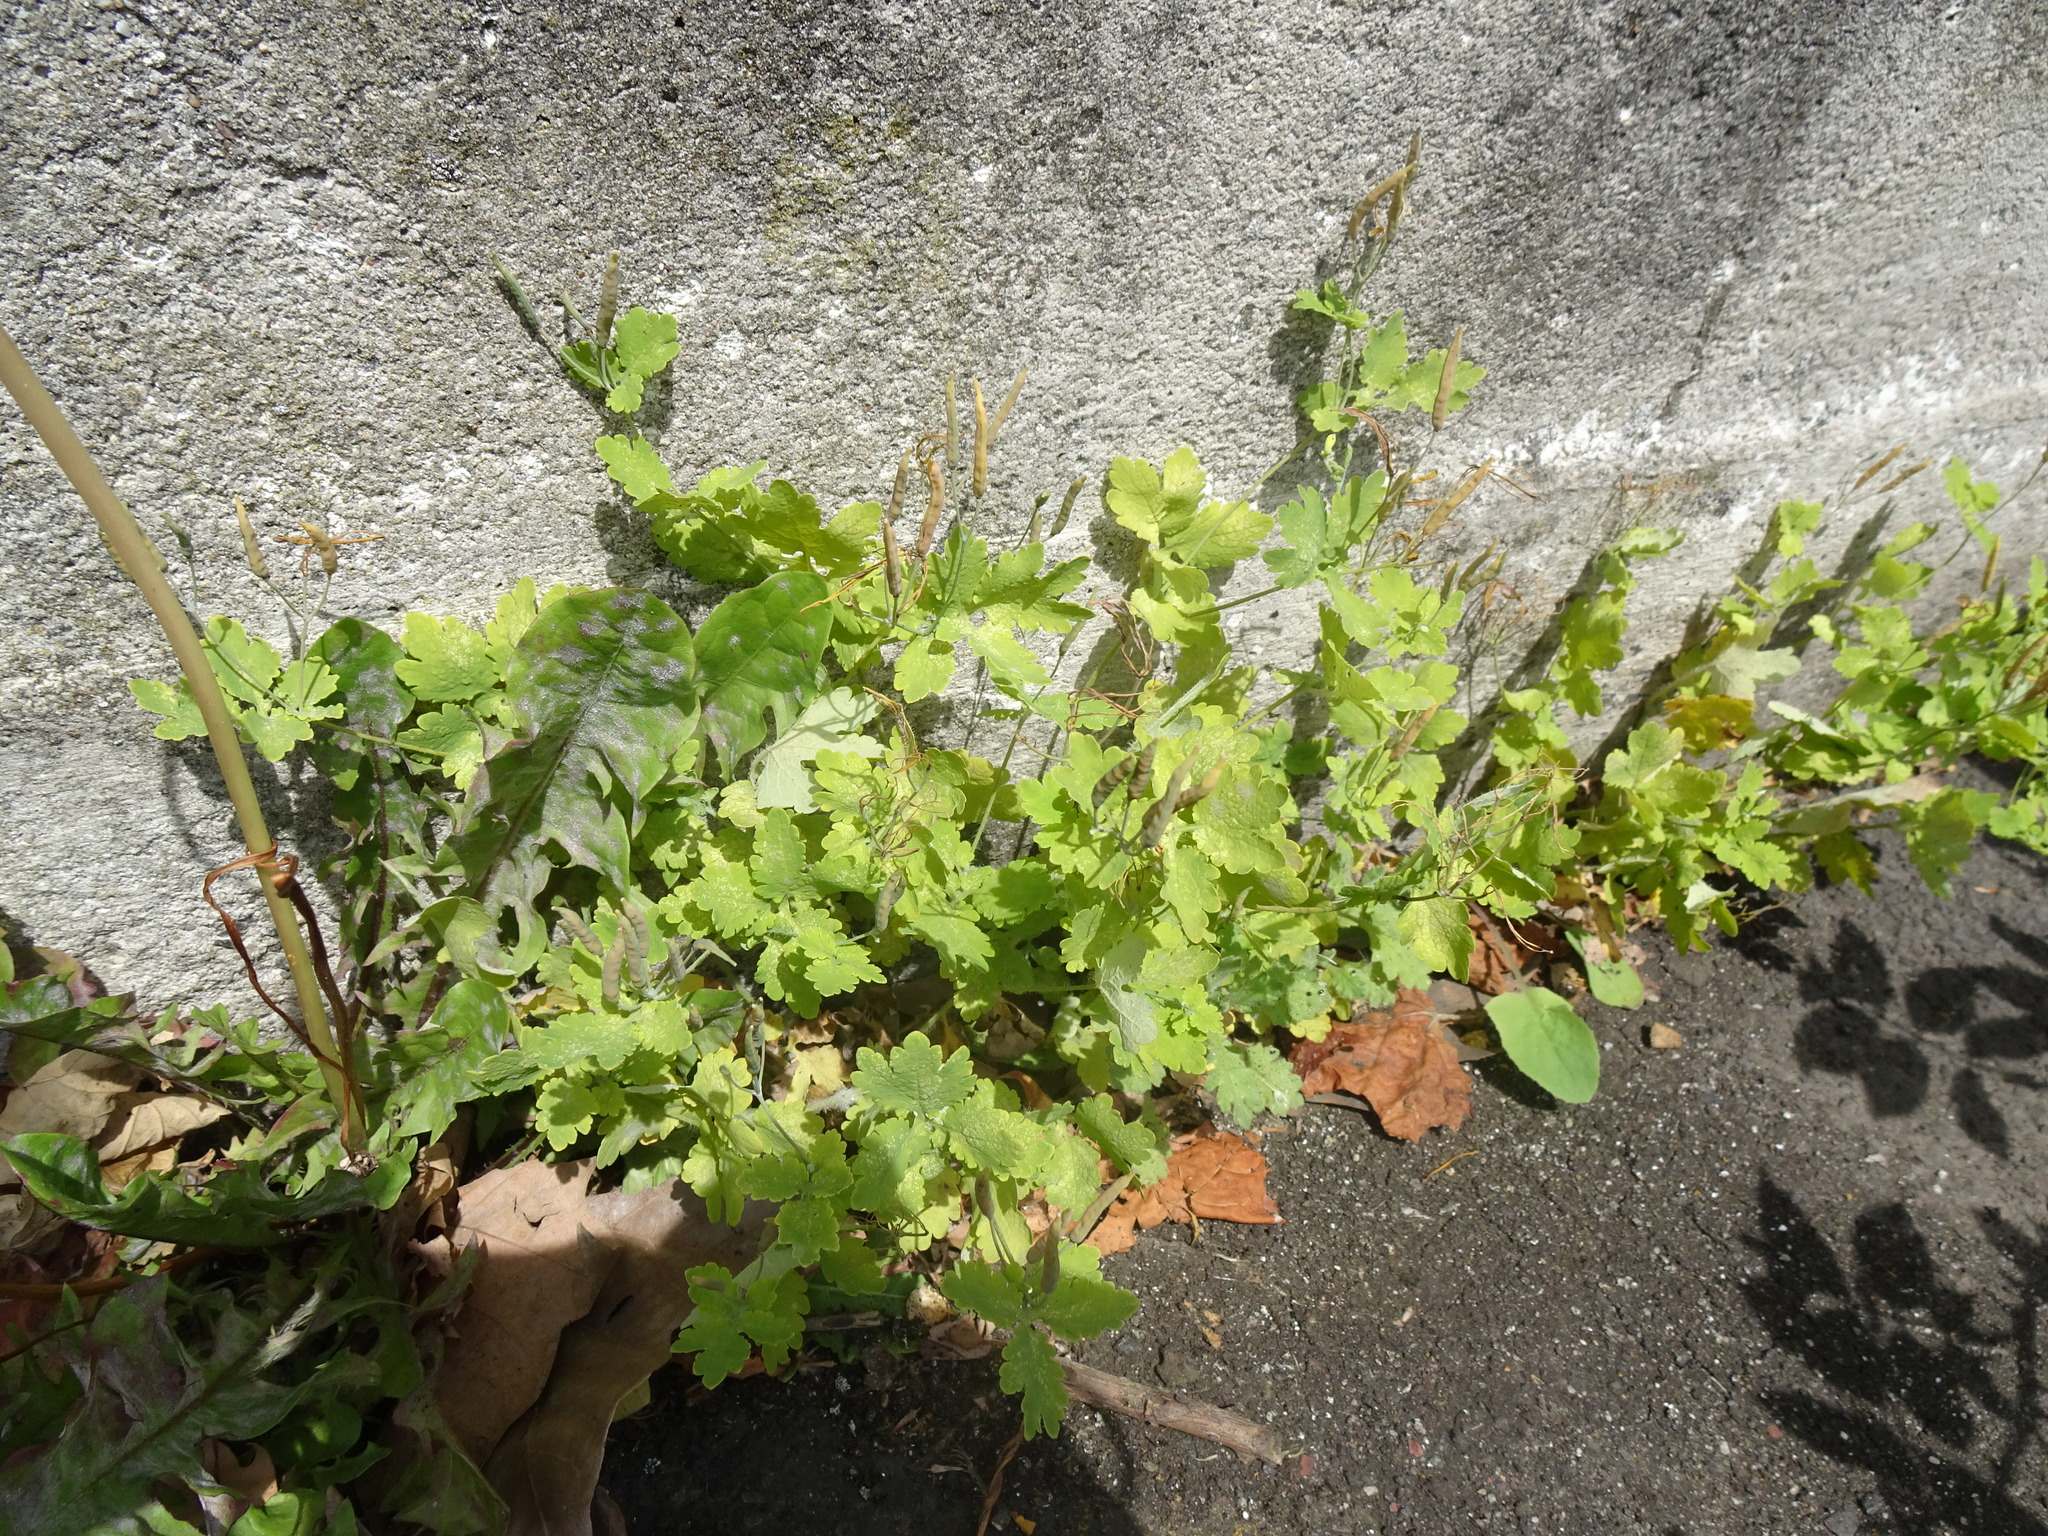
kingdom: Plantae
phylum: Tracheophyta
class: Magnoliopsida
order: Ranunculales
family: Papaveraceae
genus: Chelidonium
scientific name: Chelidonium majus
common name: Greater celandine
